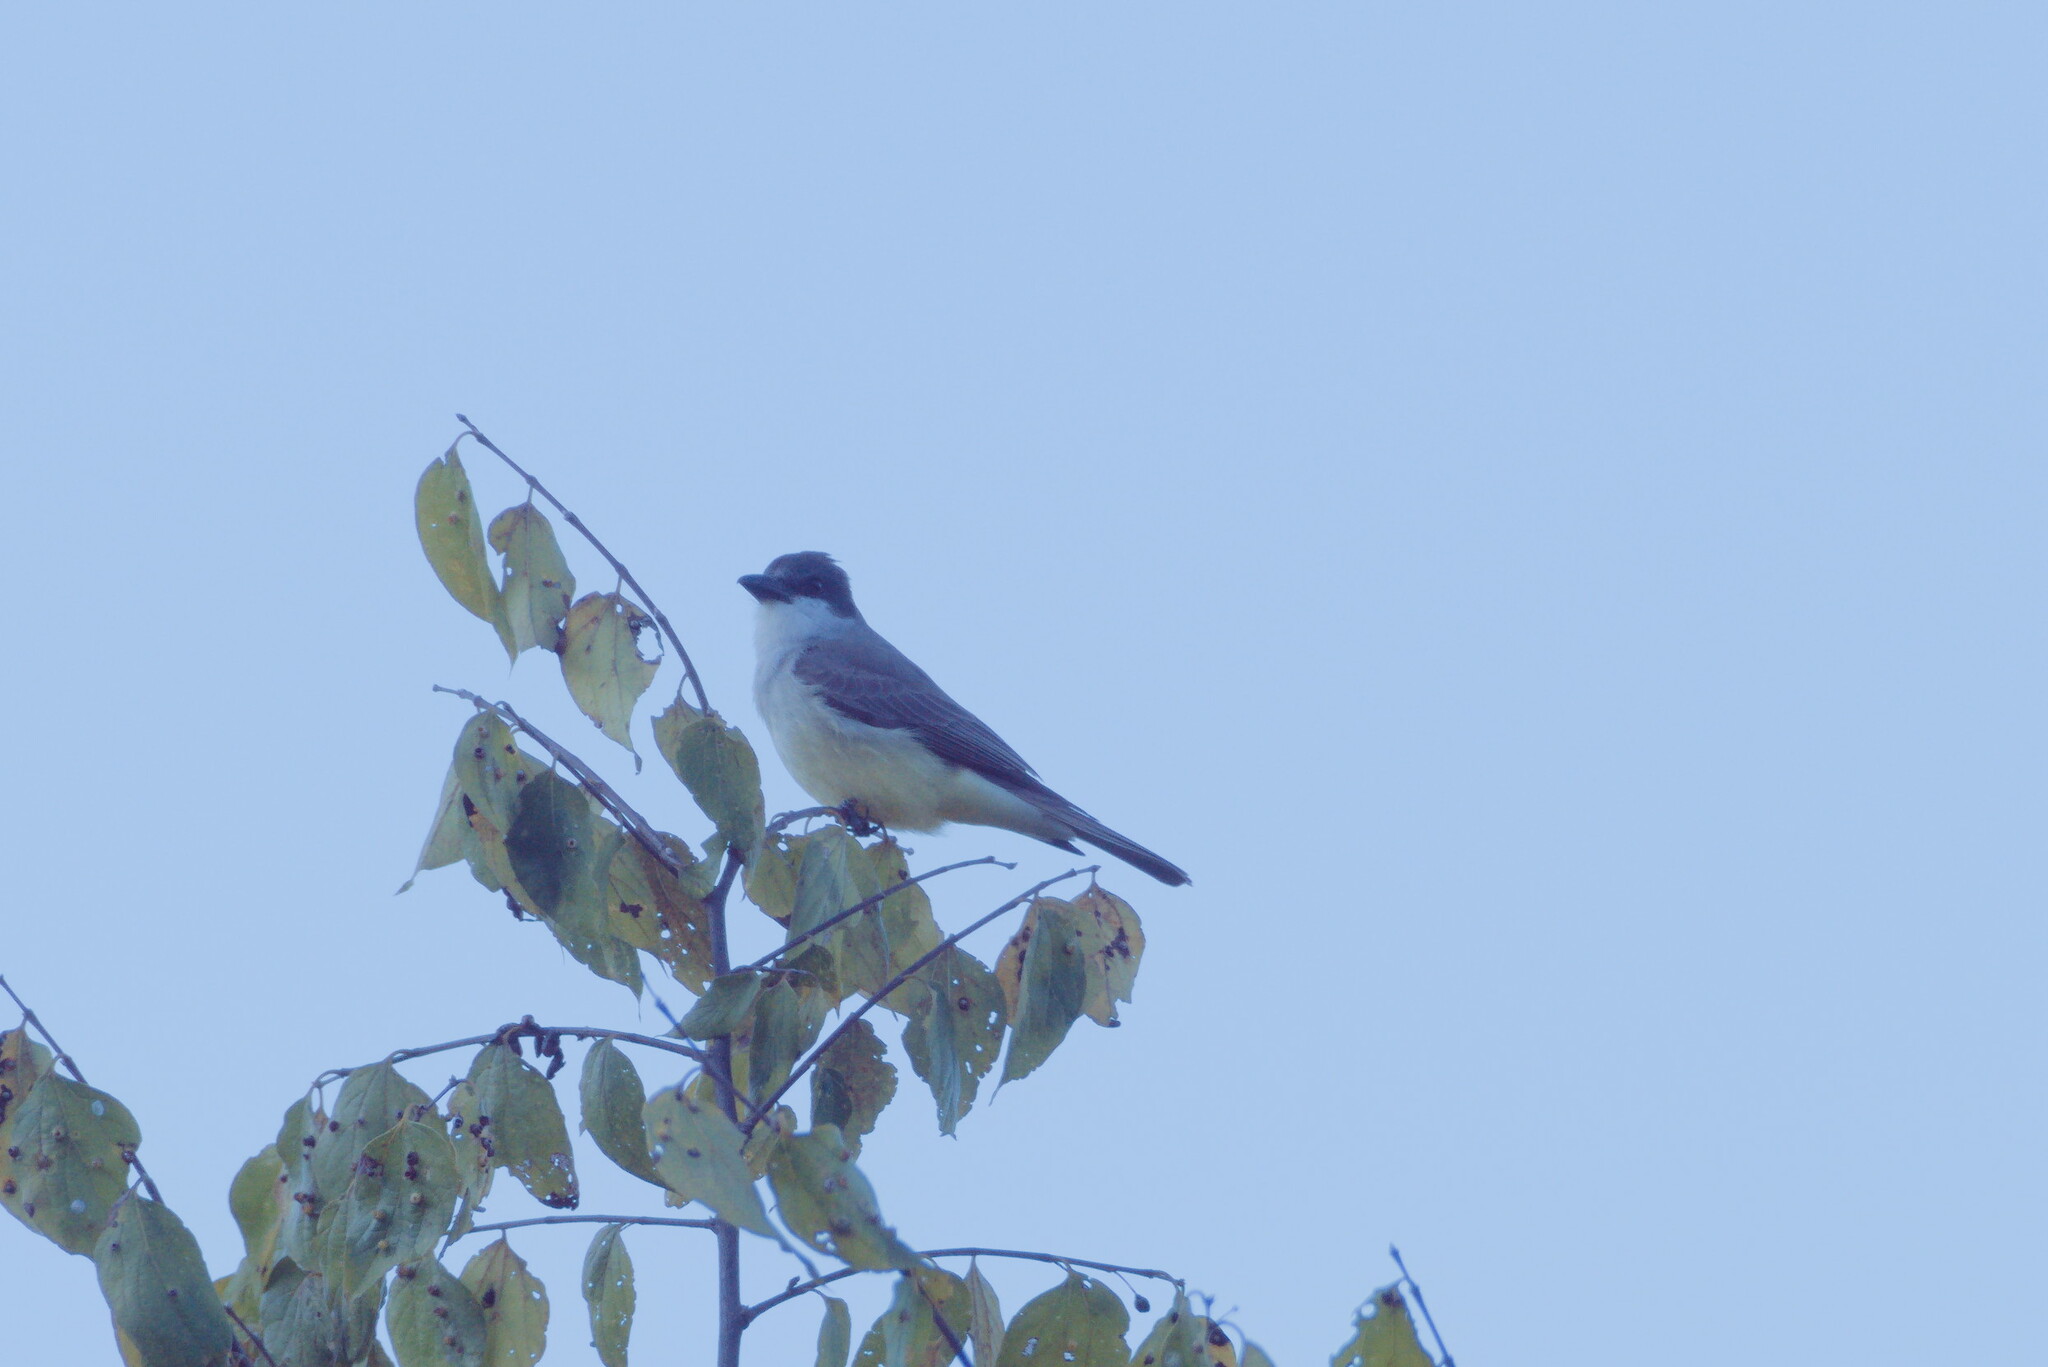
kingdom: Animalia
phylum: Chordata
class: Aves
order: Passeriformes
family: Tyrannidae
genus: Tyrannus
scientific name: Tyrannus crassirostris
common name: Thick-billed kingbird
